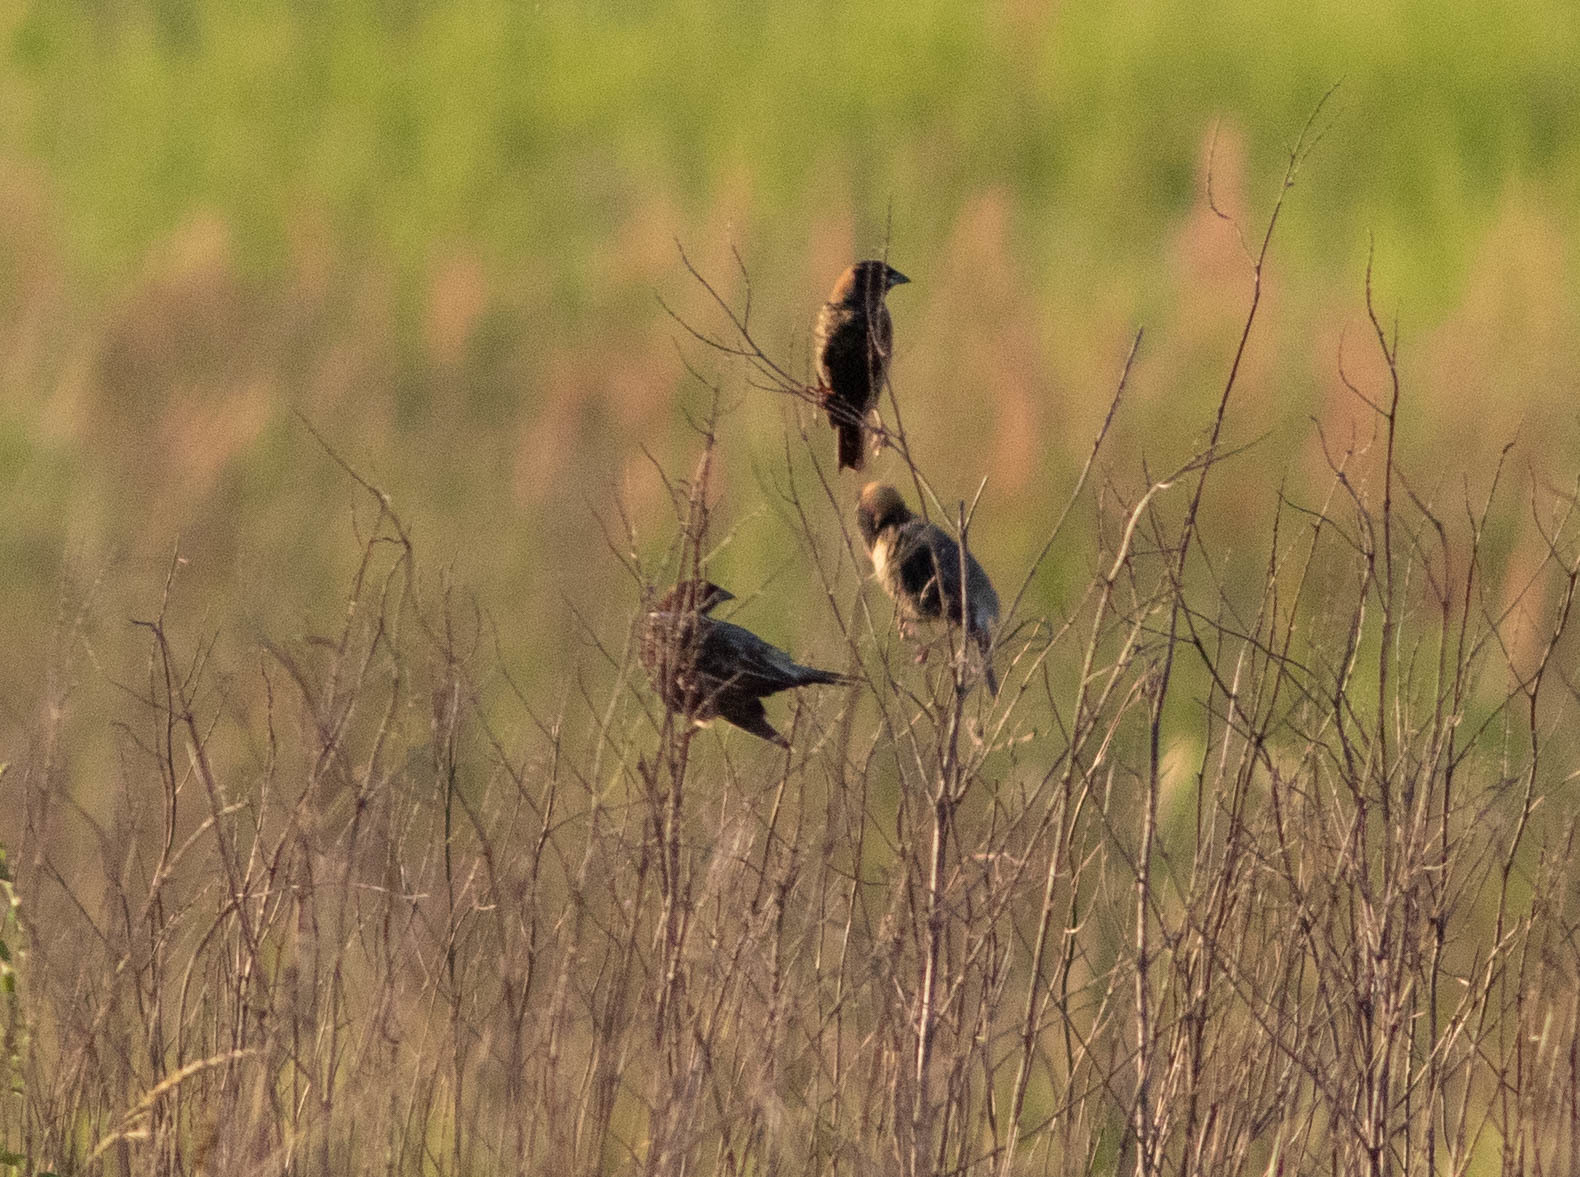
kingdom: Animalia
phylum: Chordata
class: Aves
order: Passeriformes
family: Icteridae
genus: Dolichonyx
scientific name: Dolichonyx oryzivorus
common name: Bobolink
